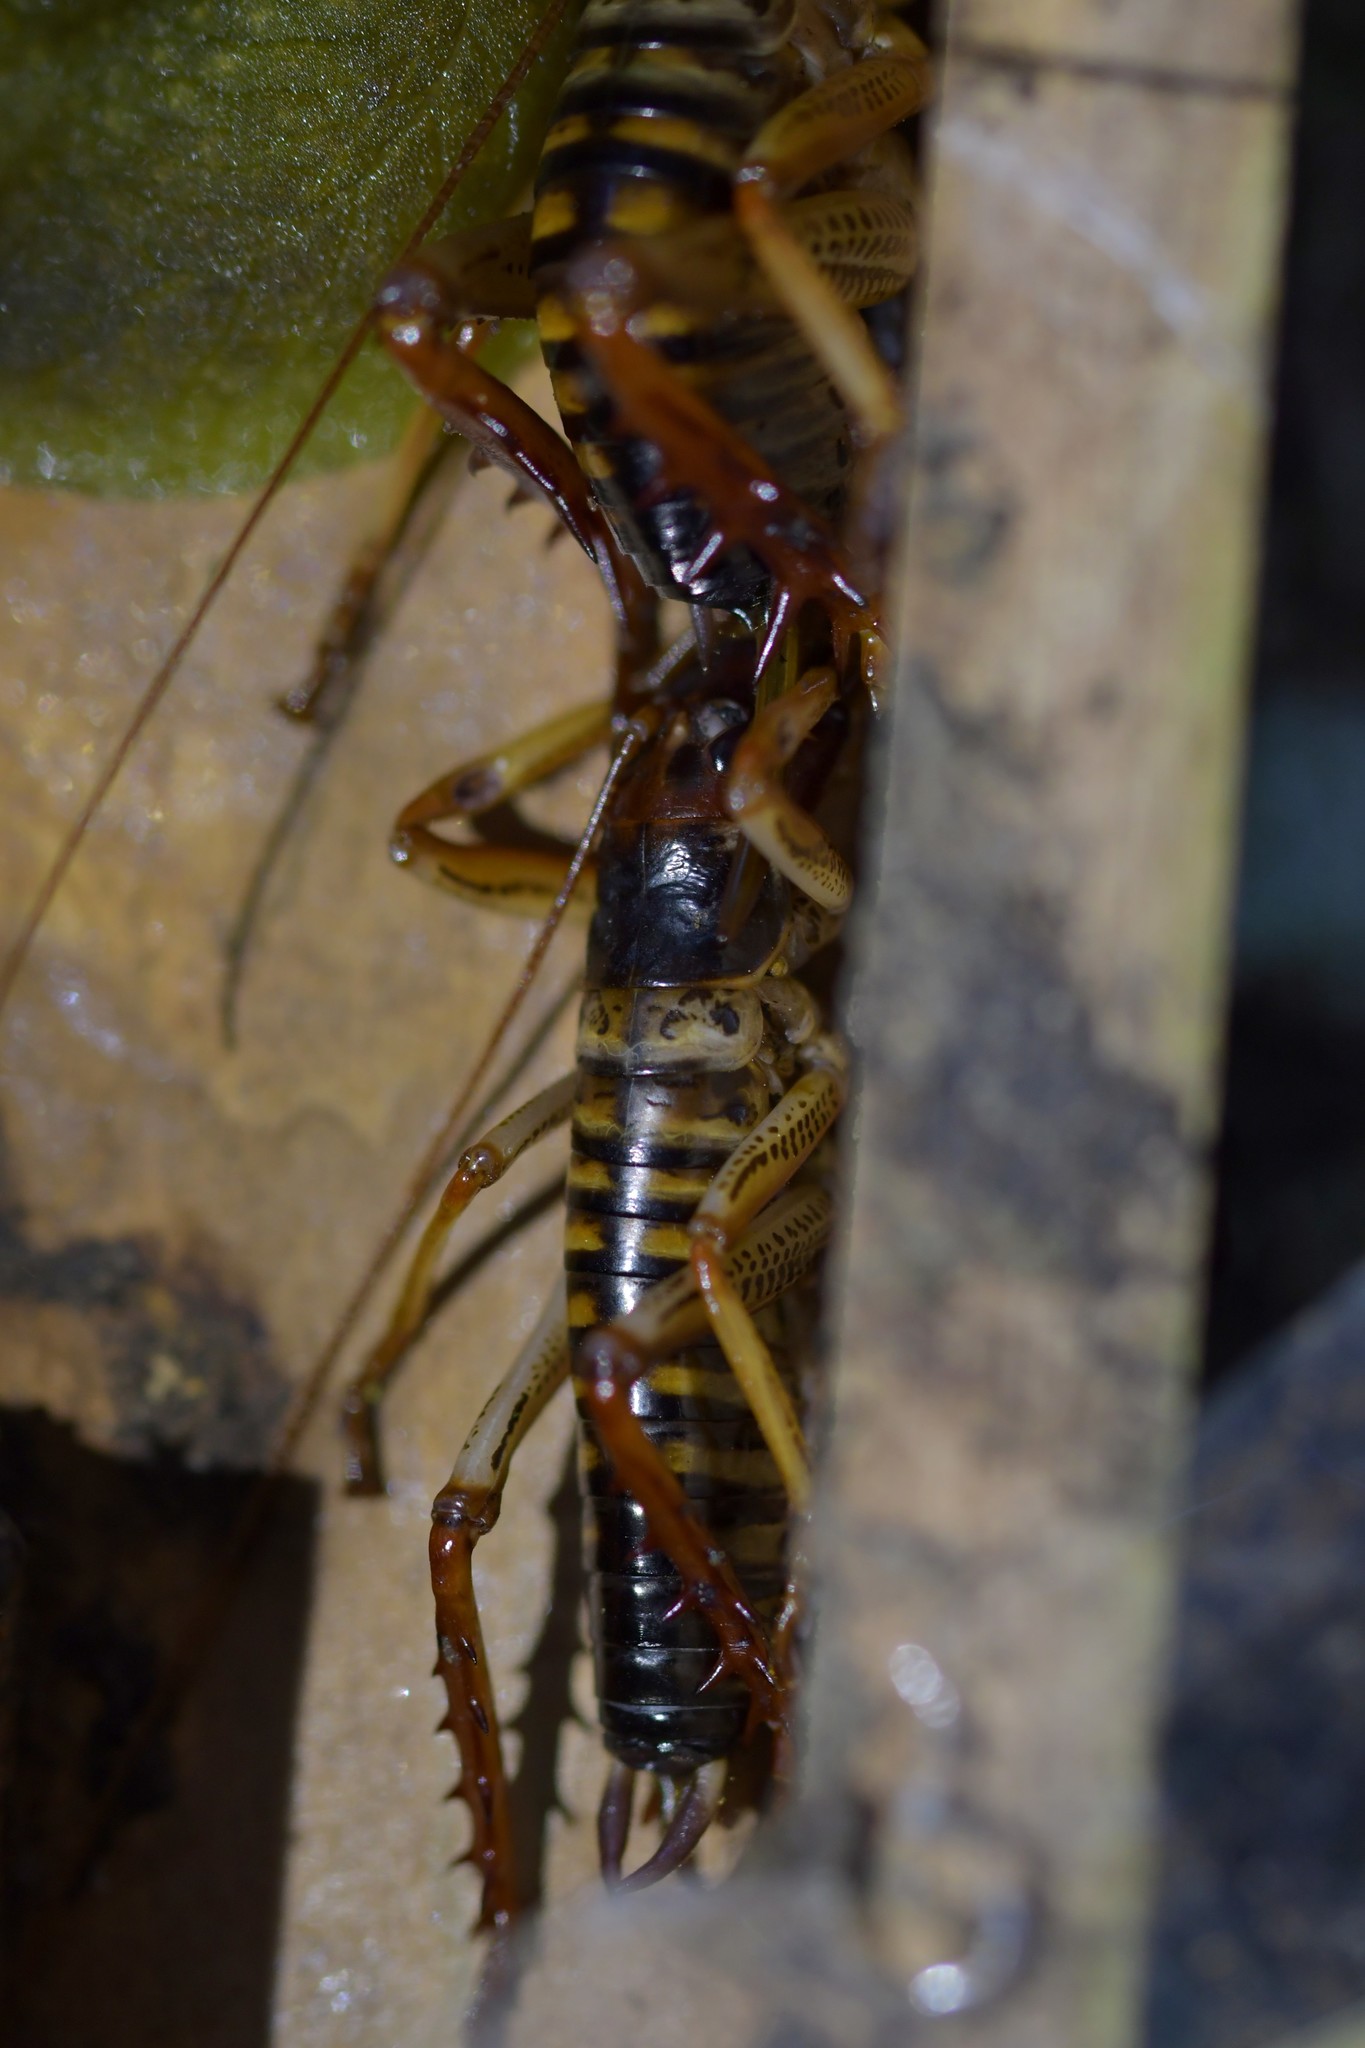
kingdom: Animalia
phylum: Arthropoda
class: Insecta
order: Orthoptera
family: Anostostomatidae
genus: Hemideina
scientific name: Hemideina crassidens
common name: Wellington tree weta
